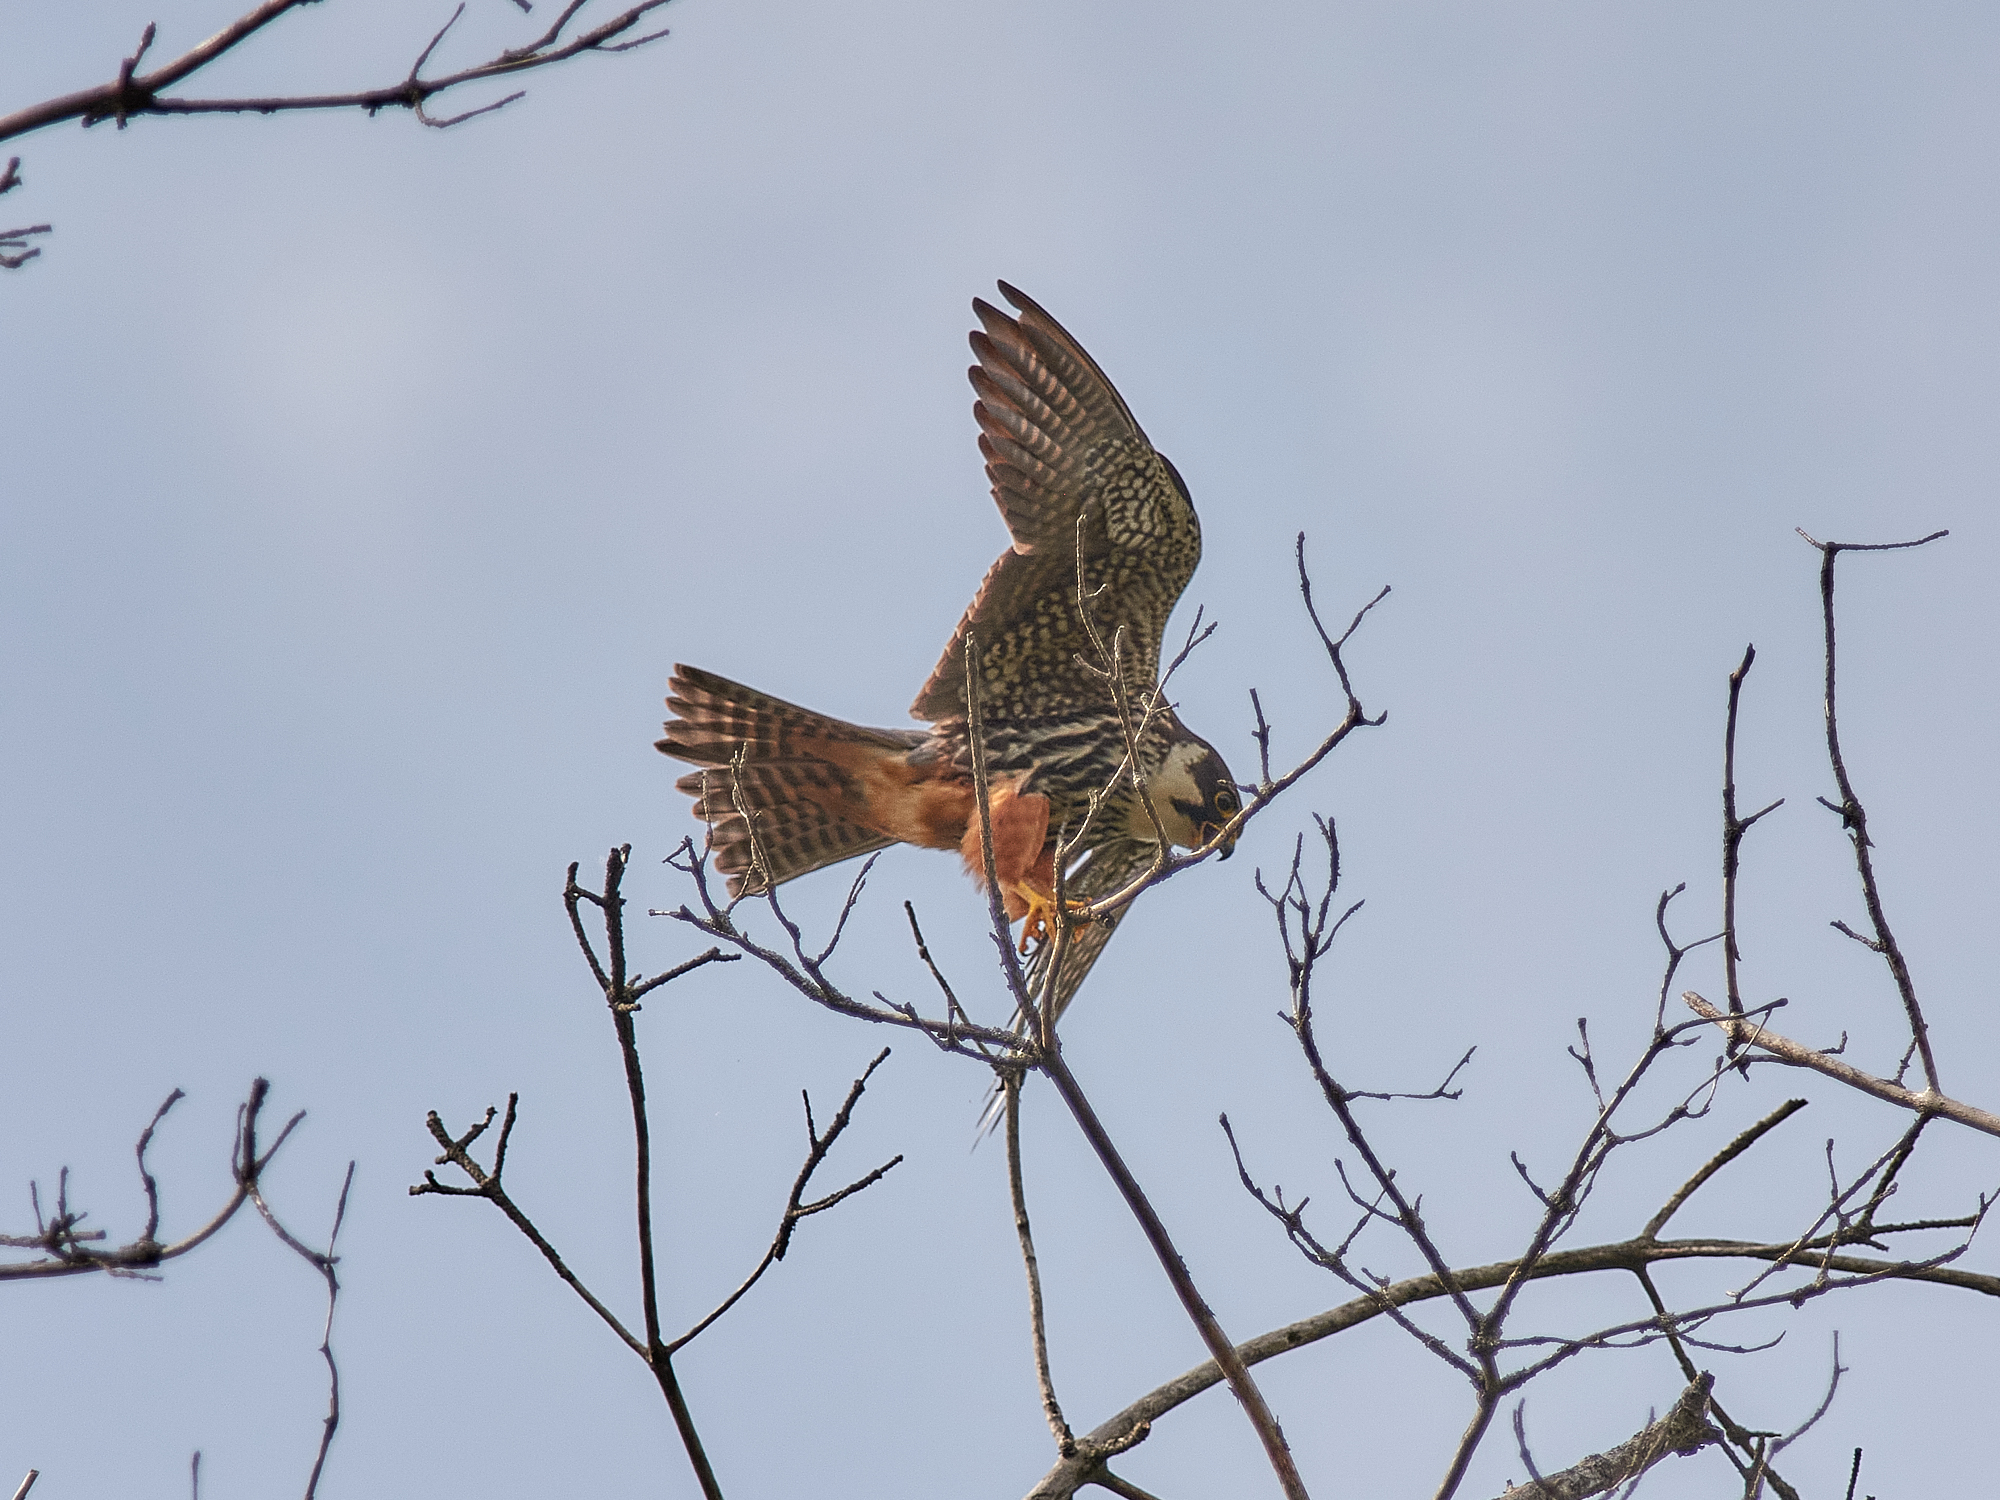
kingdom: Animalia
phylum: Chordata
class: Aves
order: Falconiformes
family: Falconidae
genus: Falco
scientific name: Falco subbuteo
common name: Eurasian hobby
